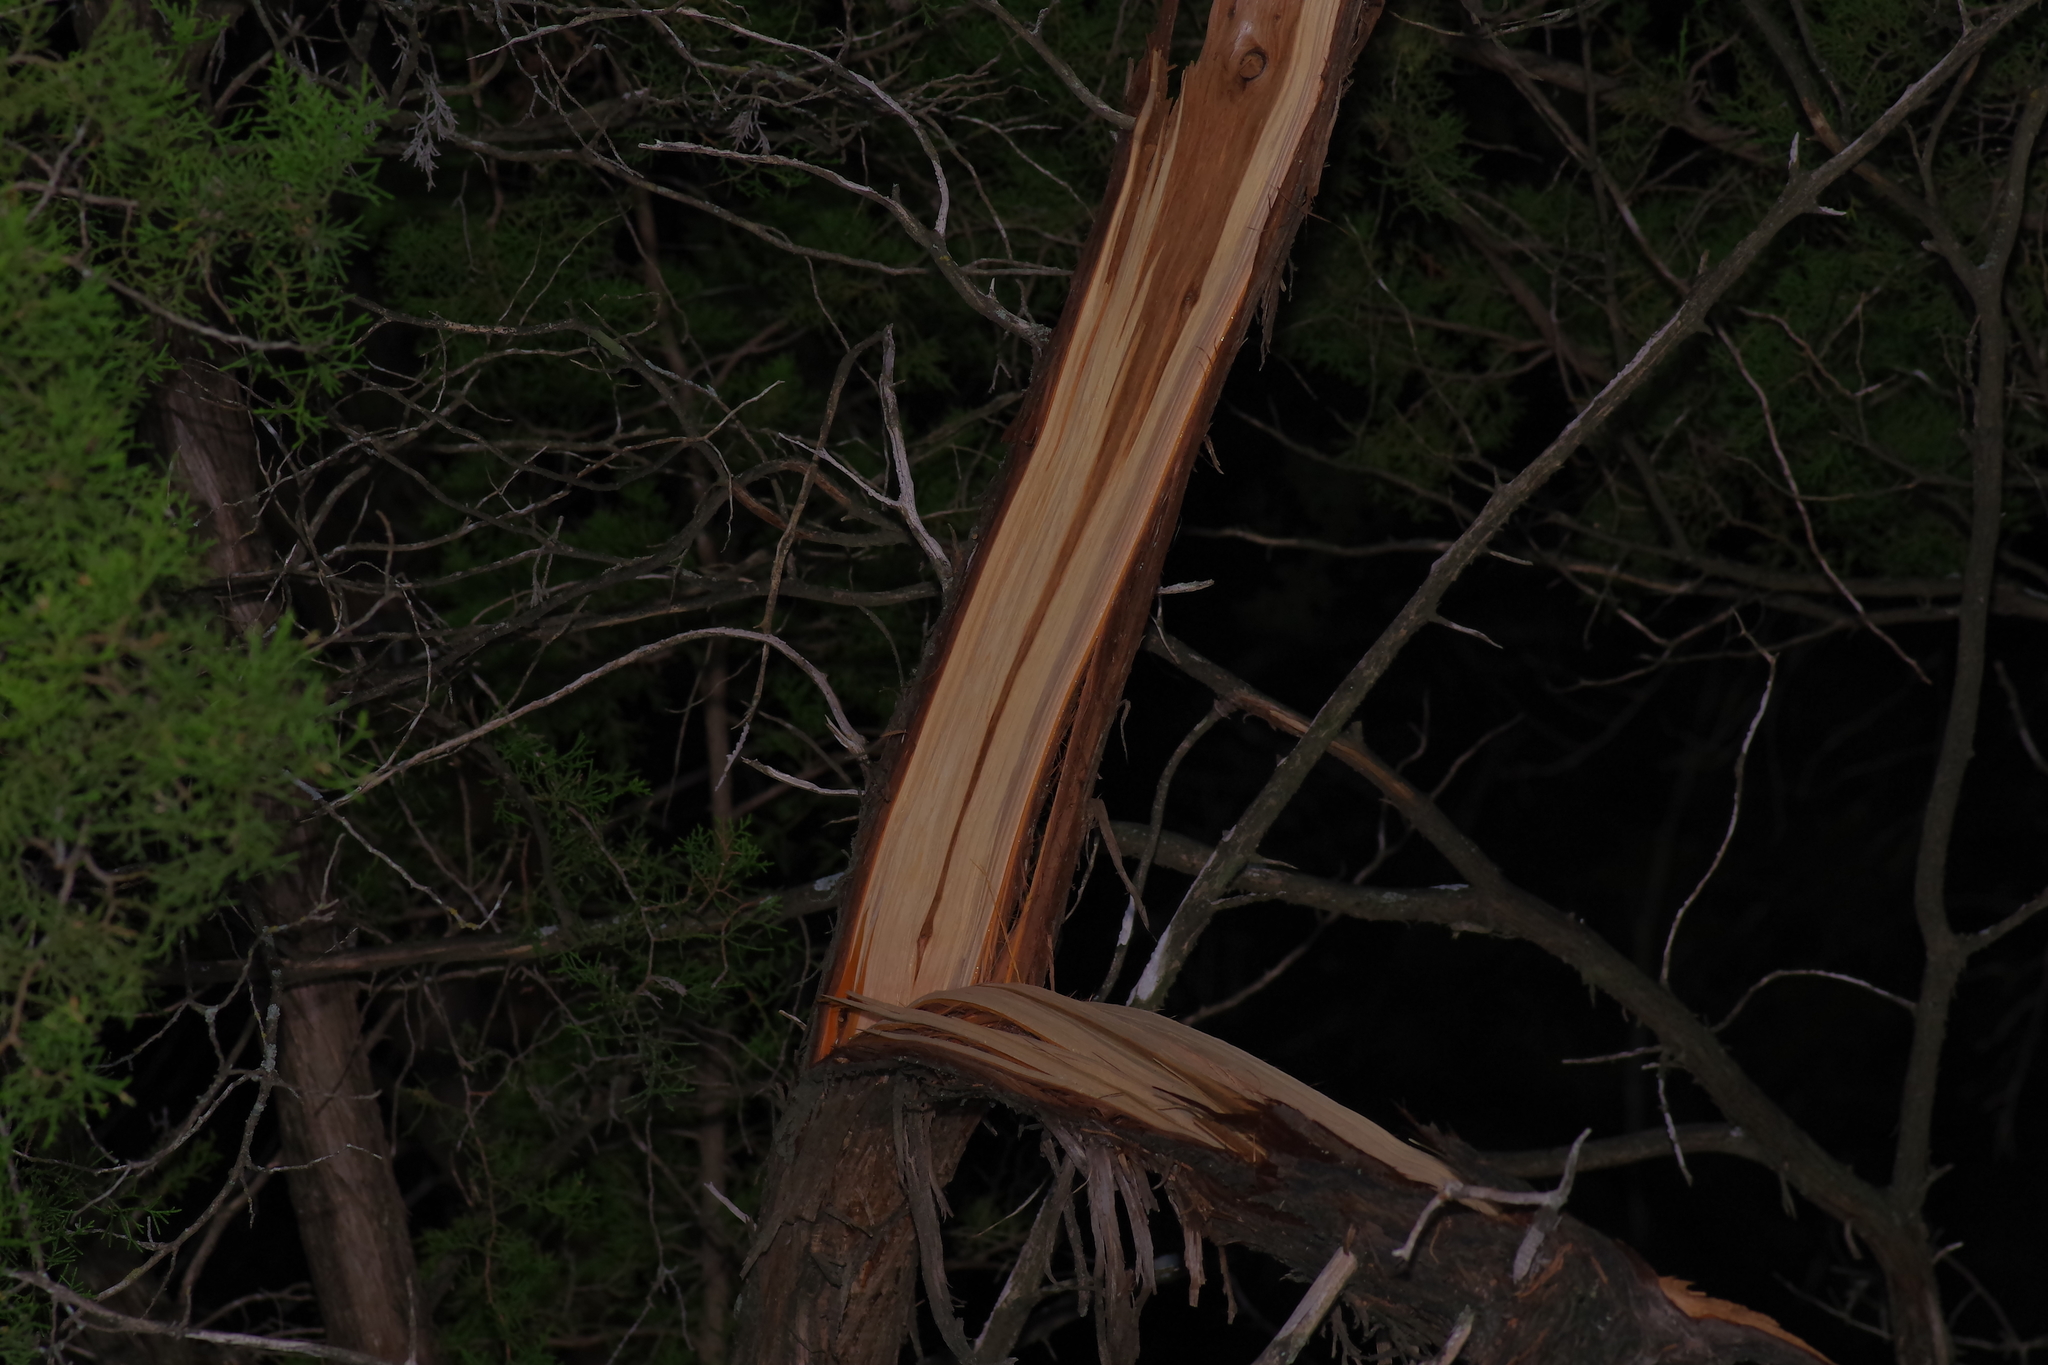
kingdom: Plantae
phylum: Tracheophyta
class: Pinopsida
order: Pinales
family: Cupressaceae
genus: Juniperus
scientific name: Juniperus ashei
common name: Mexican juniper
